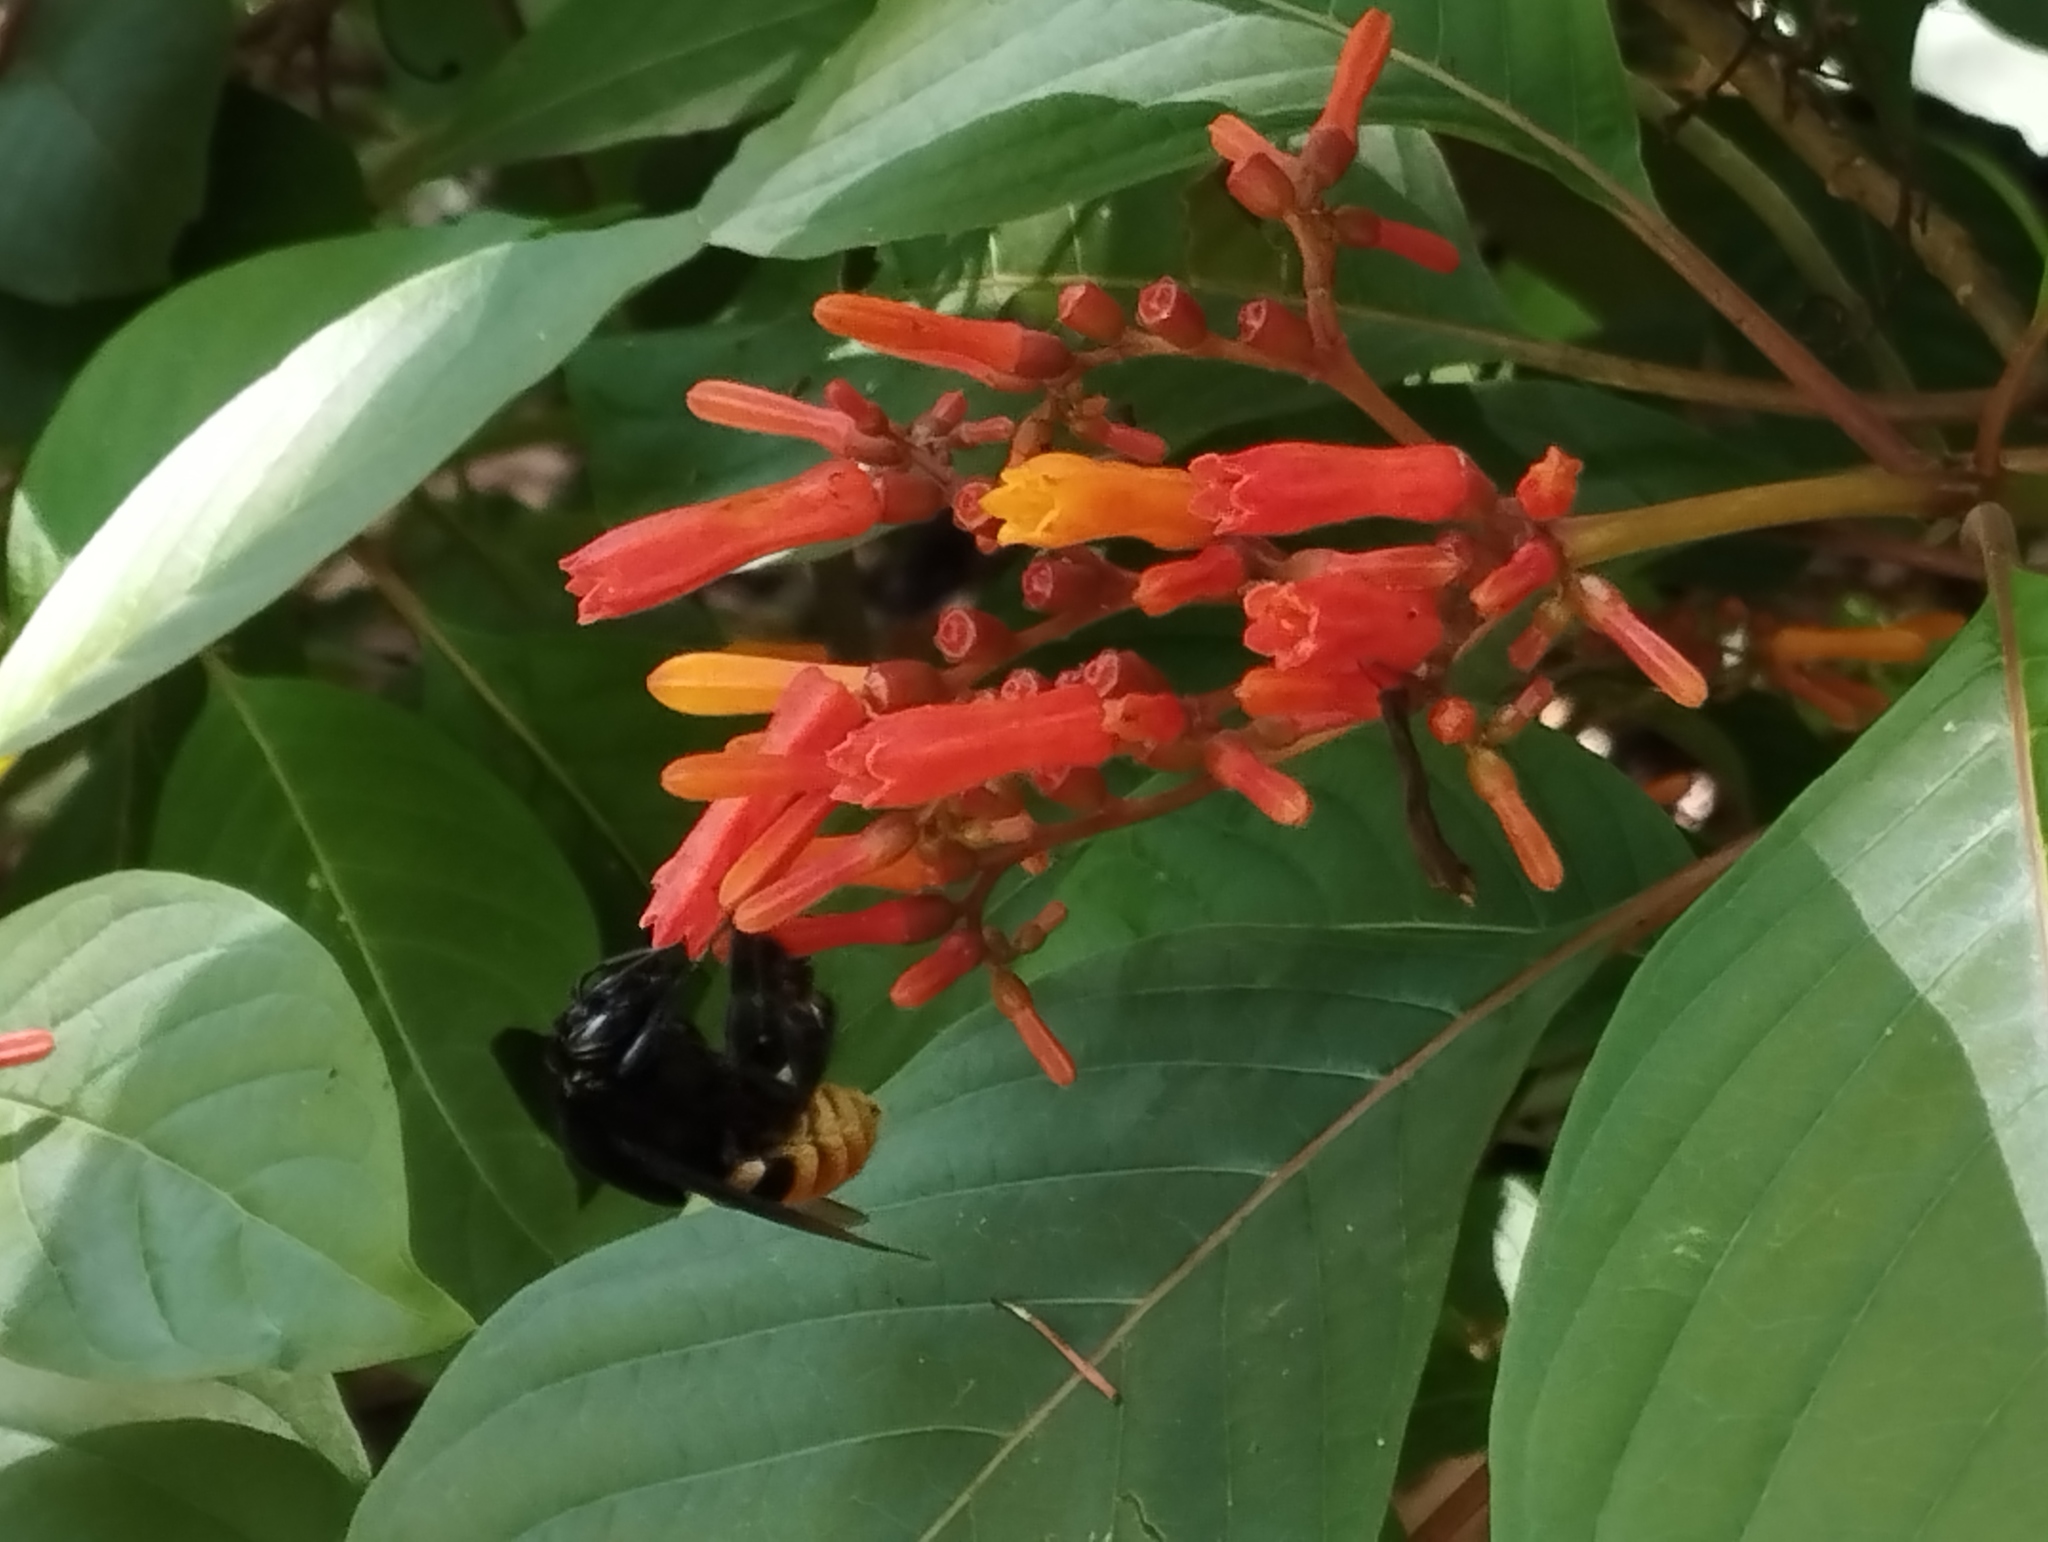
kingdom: Animalia
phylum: Arthropoda
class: Insecta
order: Hymenoptera
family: Apidae
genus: Eulaema
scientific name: Eulaema cingulata
